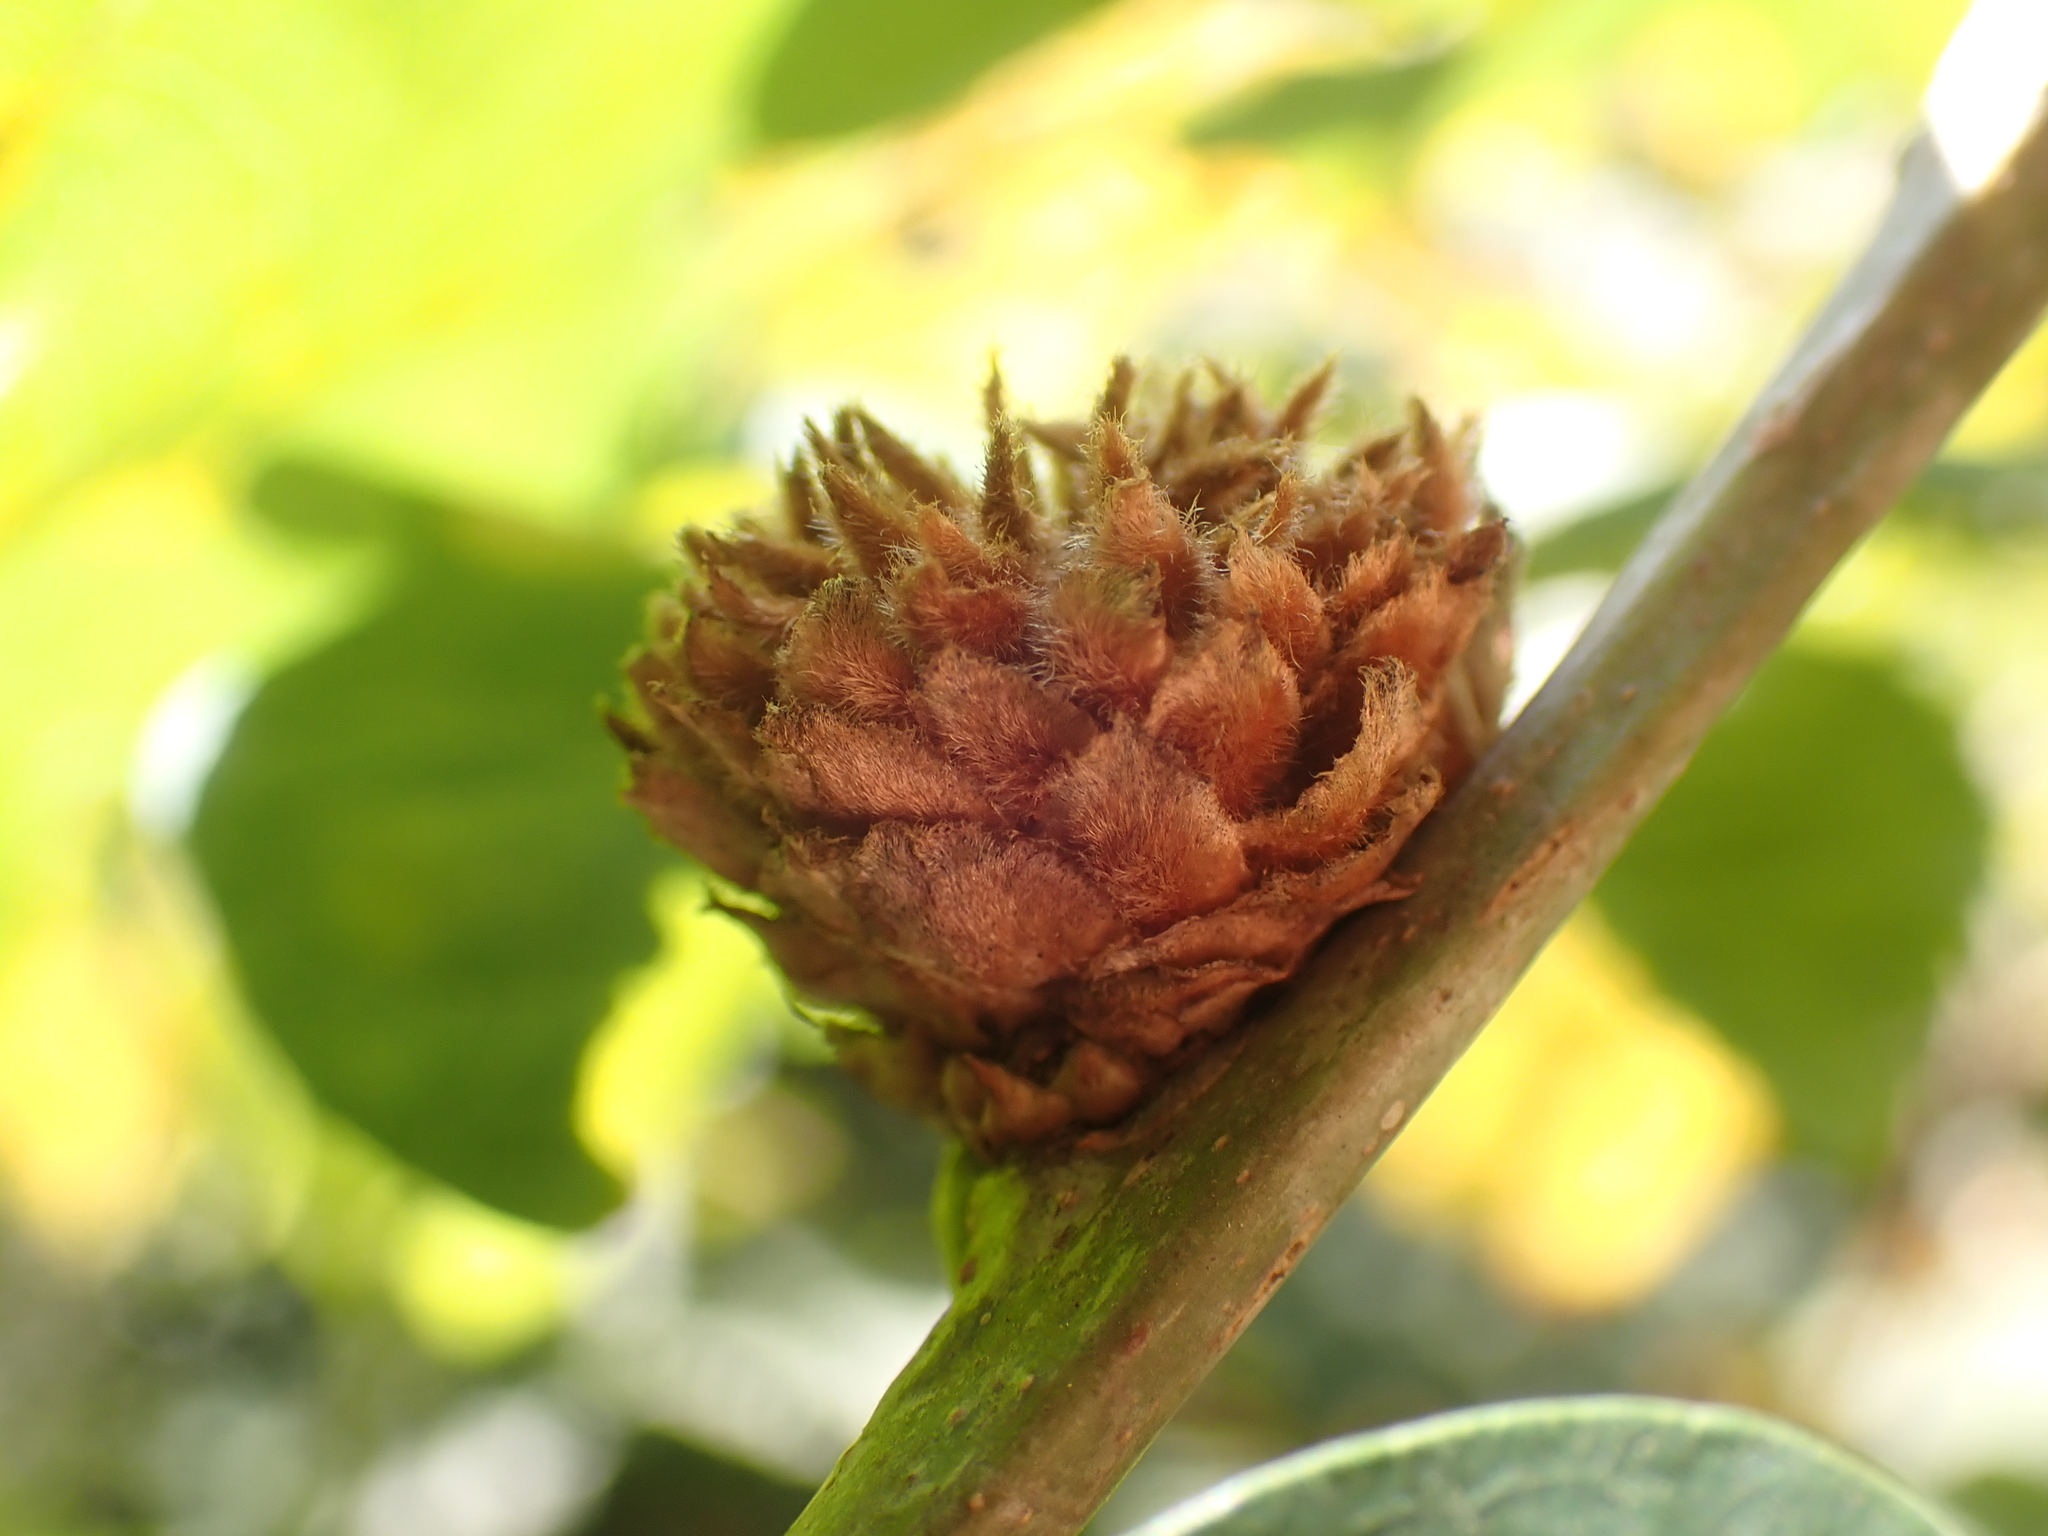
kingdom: Animalia
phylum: Arthropoda
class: Insecta
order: Hymenoptera
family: Cynipidae
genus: Andricus
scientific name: Andricus foecundatrix
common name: Artichoke gall
